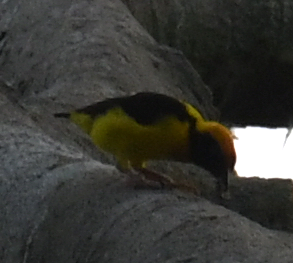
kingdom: Animalia
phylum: Chordata
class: Aves
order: Passeriformes
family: Ploceidae
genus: Ploceus
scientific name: Ploceus preussi
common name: Preuss's weaver
